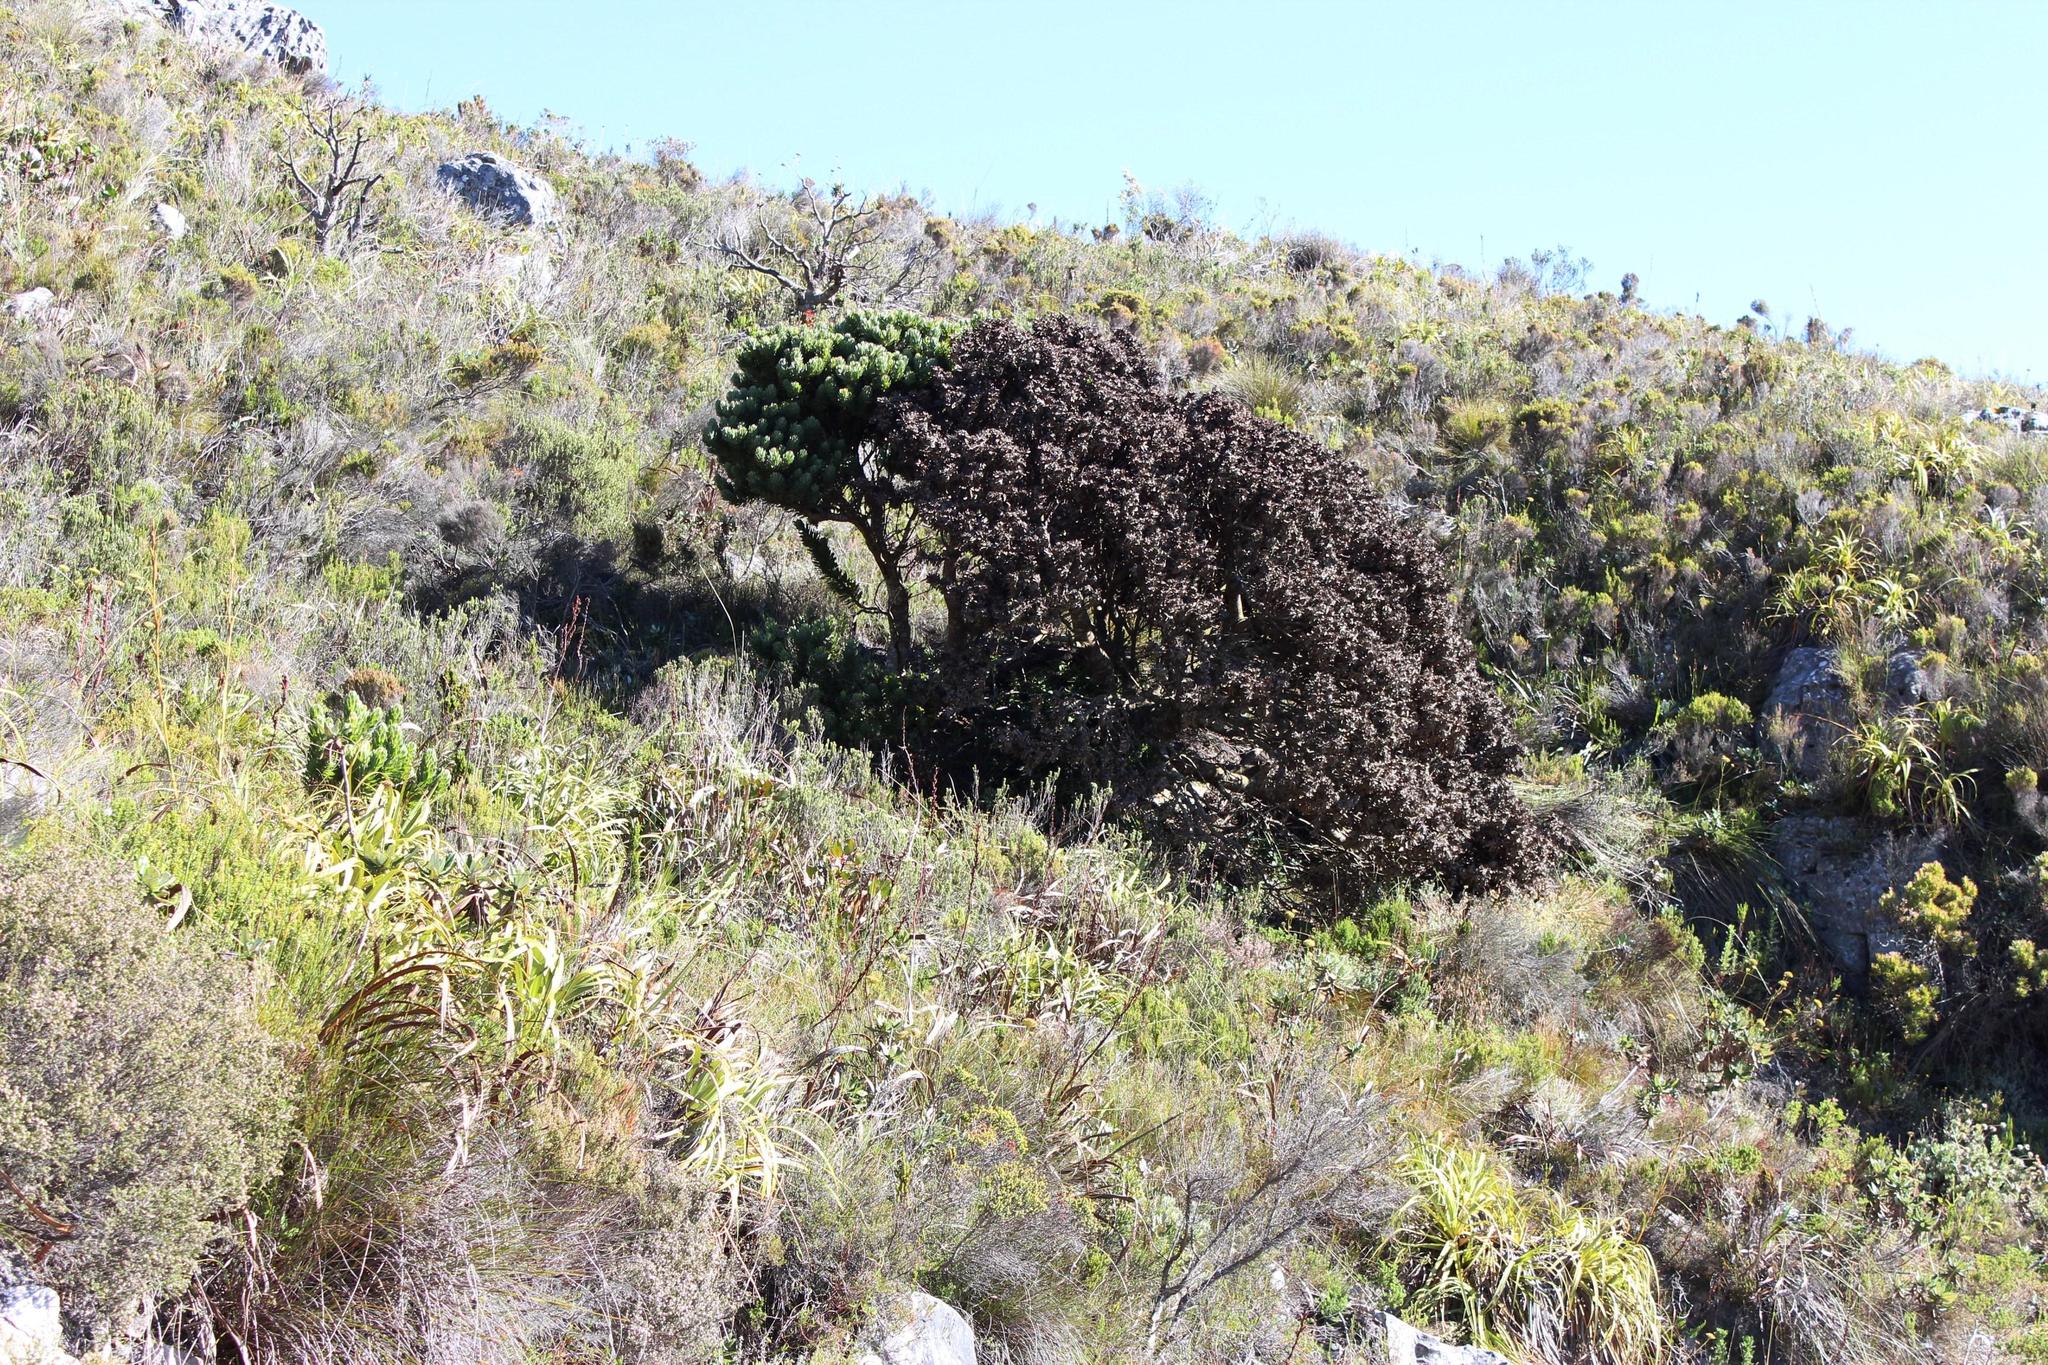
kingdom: Plantae
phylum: Tracheophyta
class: Magnoliopsida
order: Proteales
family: Proteaceae
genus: Mimetes
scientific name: Mimetes fimbriifolius
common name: Fringed bottlebrush
